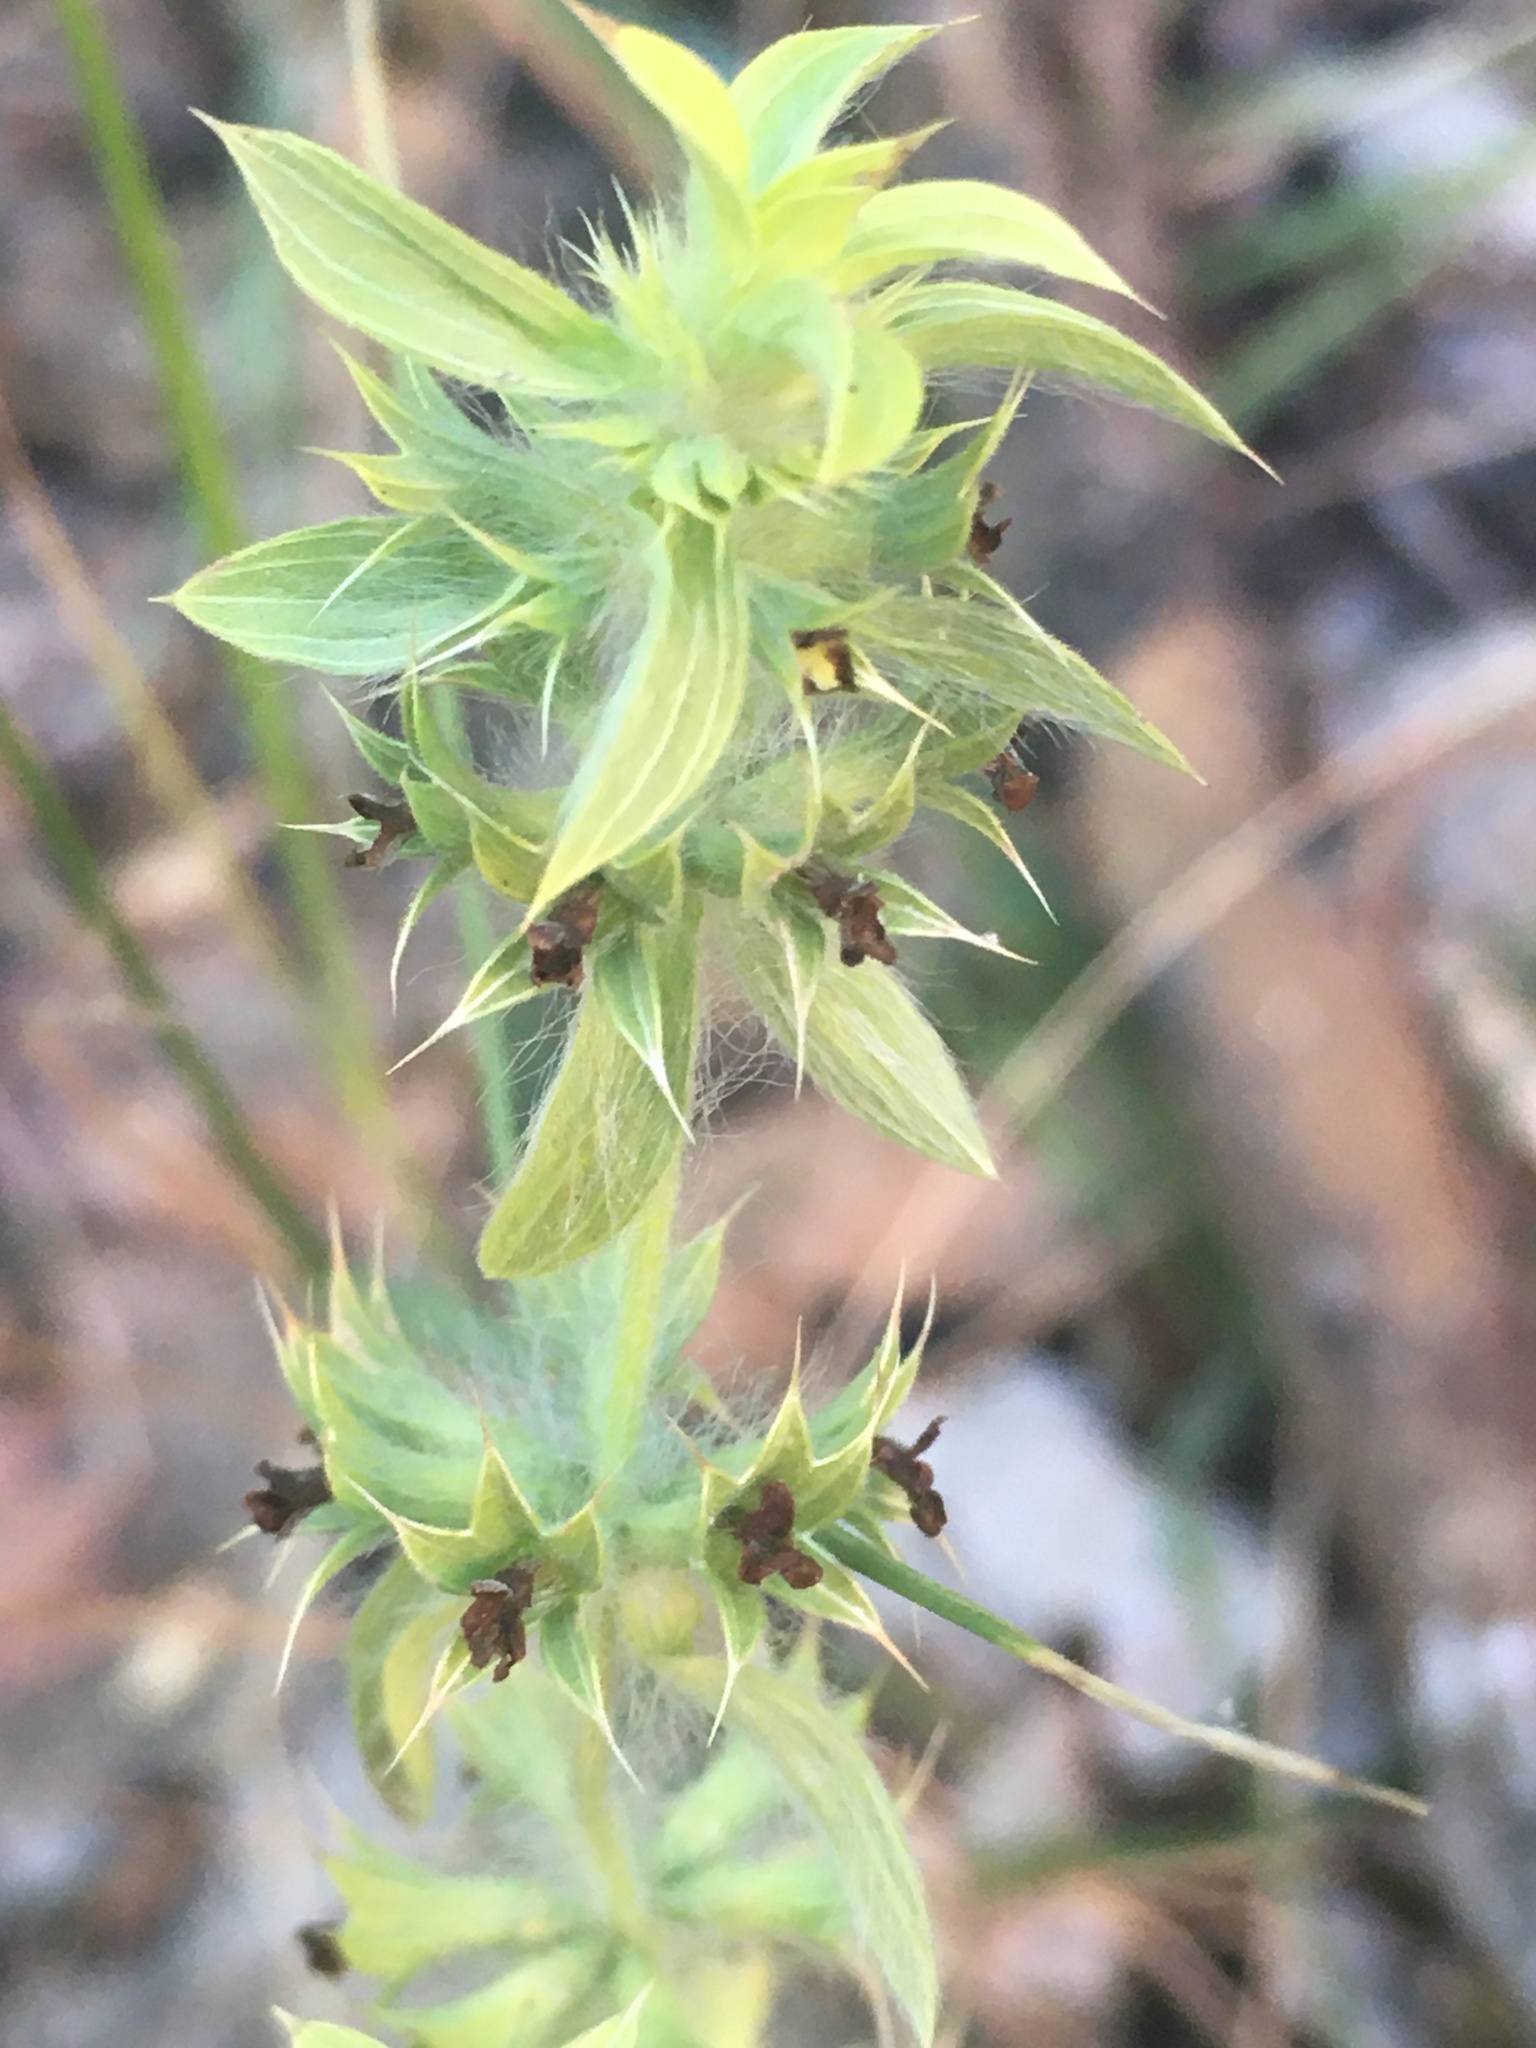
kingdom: Plantae
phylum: Tracheophyta
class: Magnoliopsida
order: Lamiales
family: Lamiaceae
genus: Sideritis
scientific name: Sideritis montana
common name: Mountain ironwort
